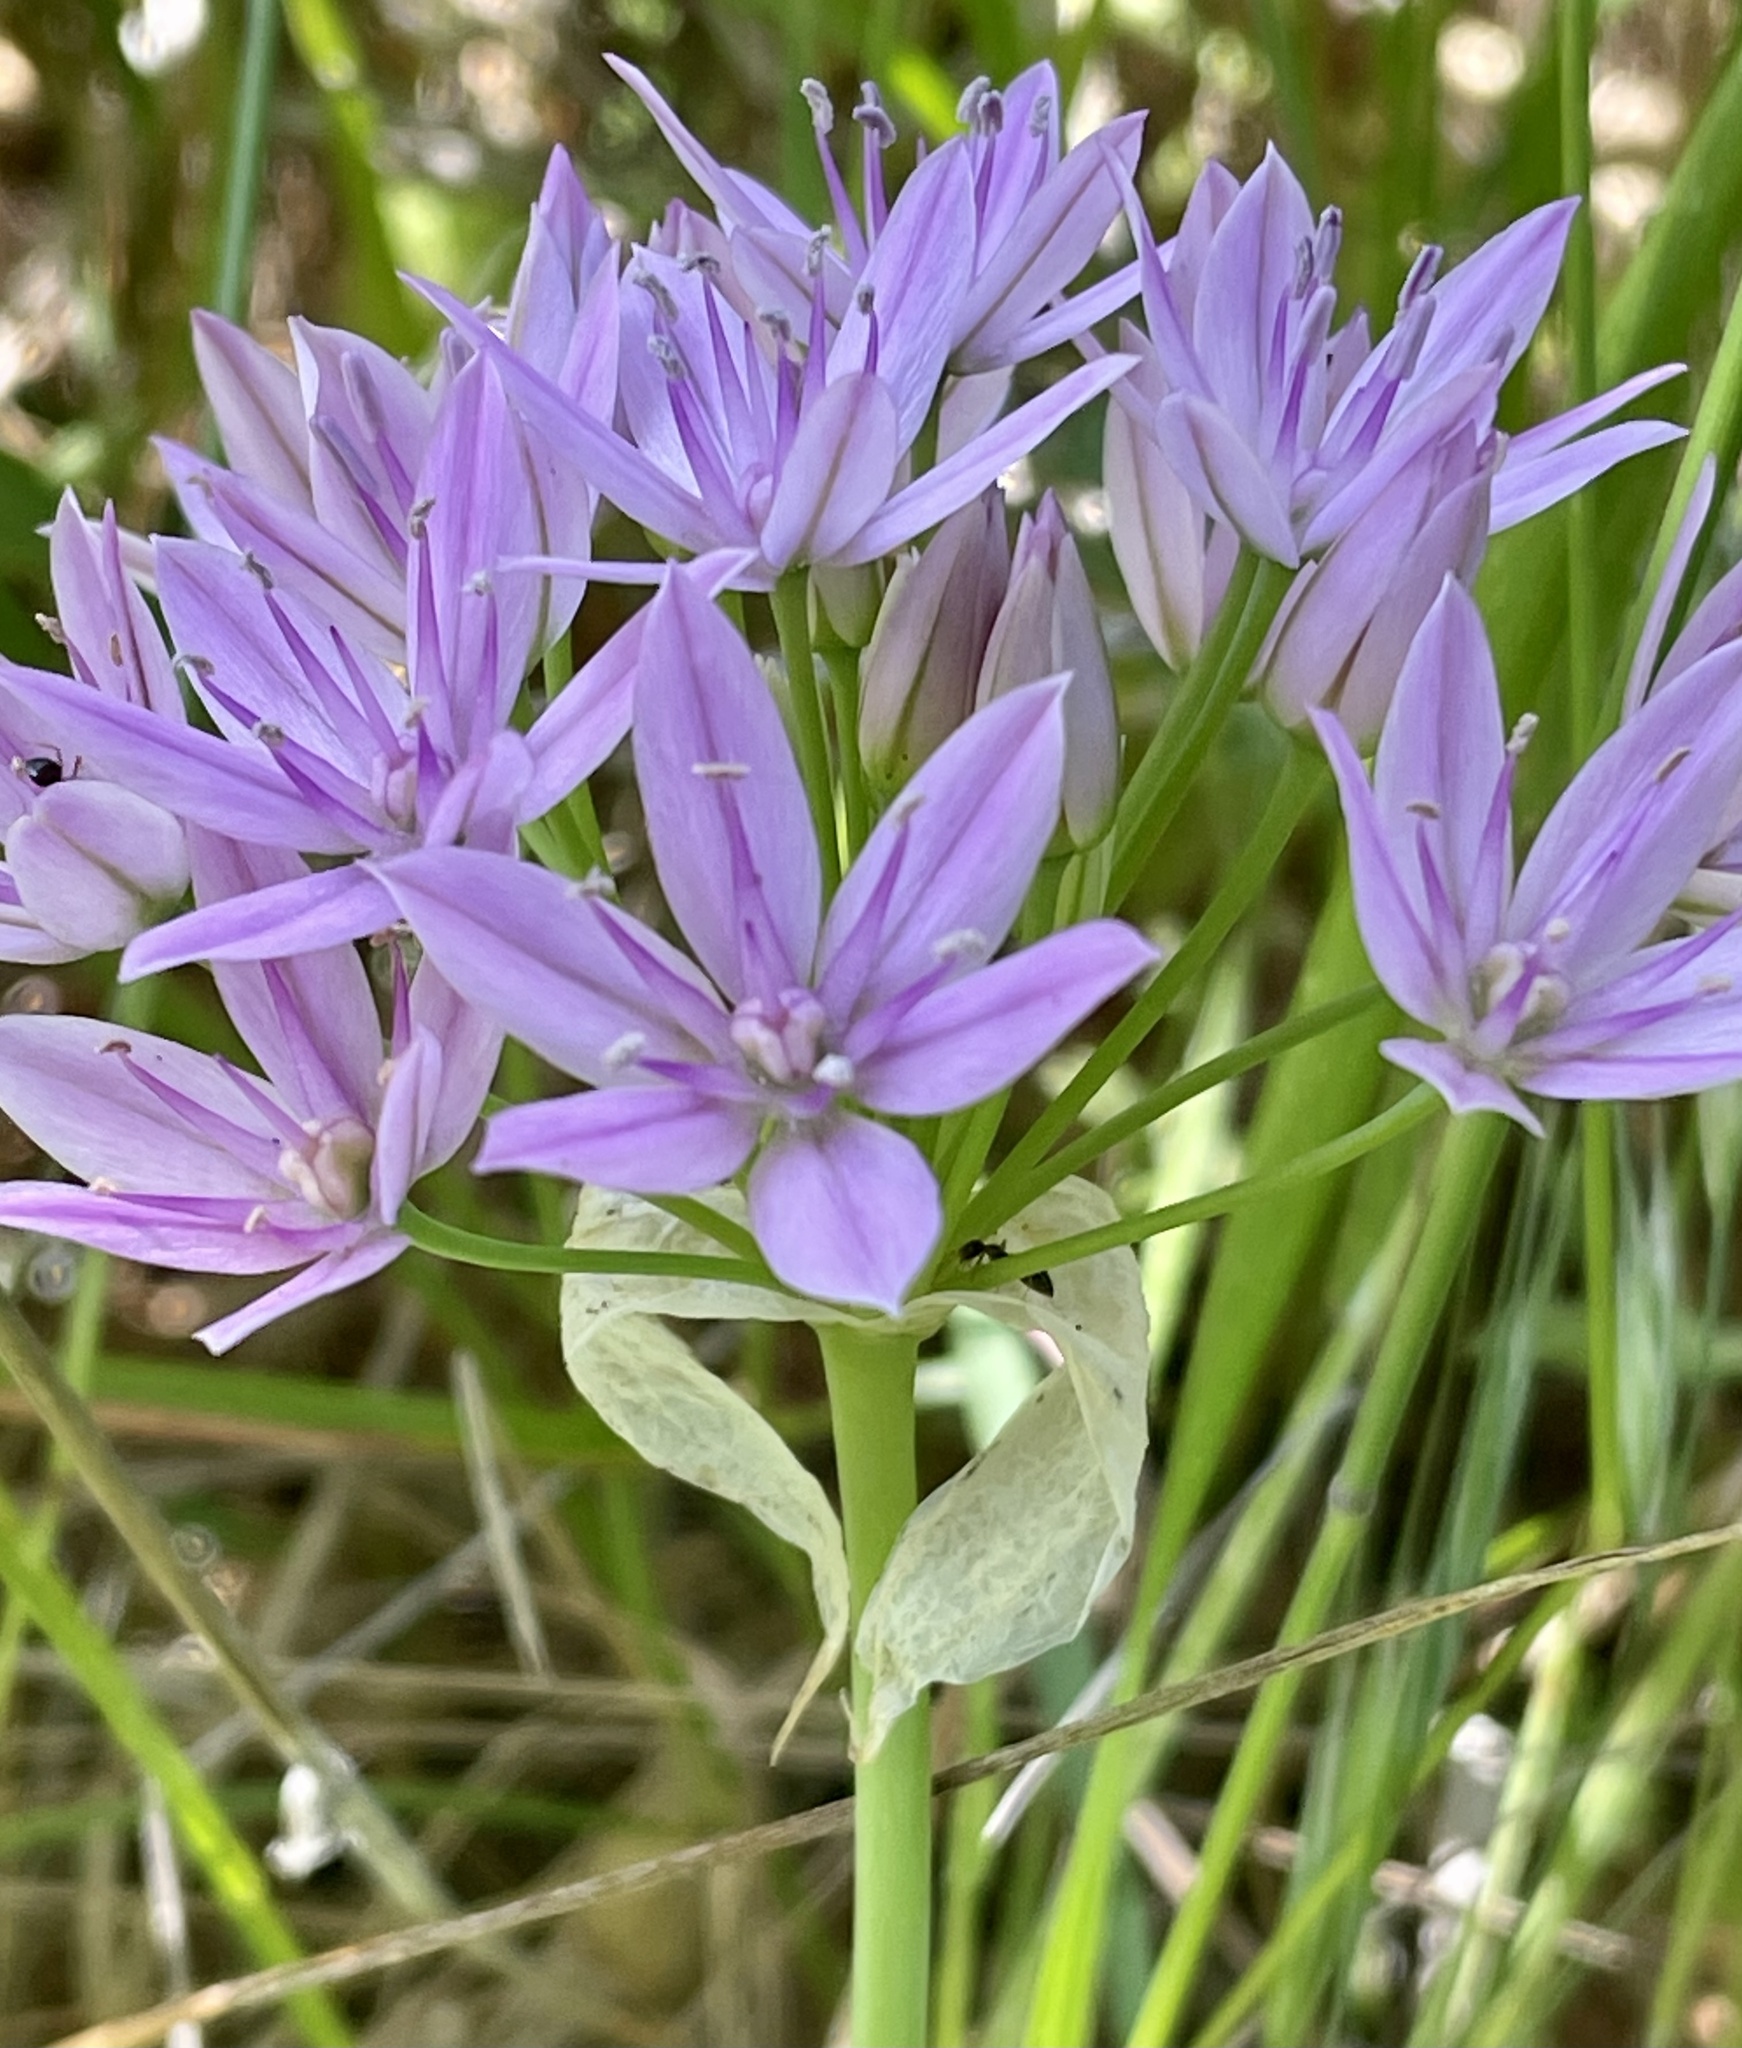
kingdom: Plantae
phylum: Tracheophyta
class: Liliopsida
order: Asparagales
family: Amaryllidaceae
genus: Allium
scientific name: Allium unifolium
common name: American garlic
